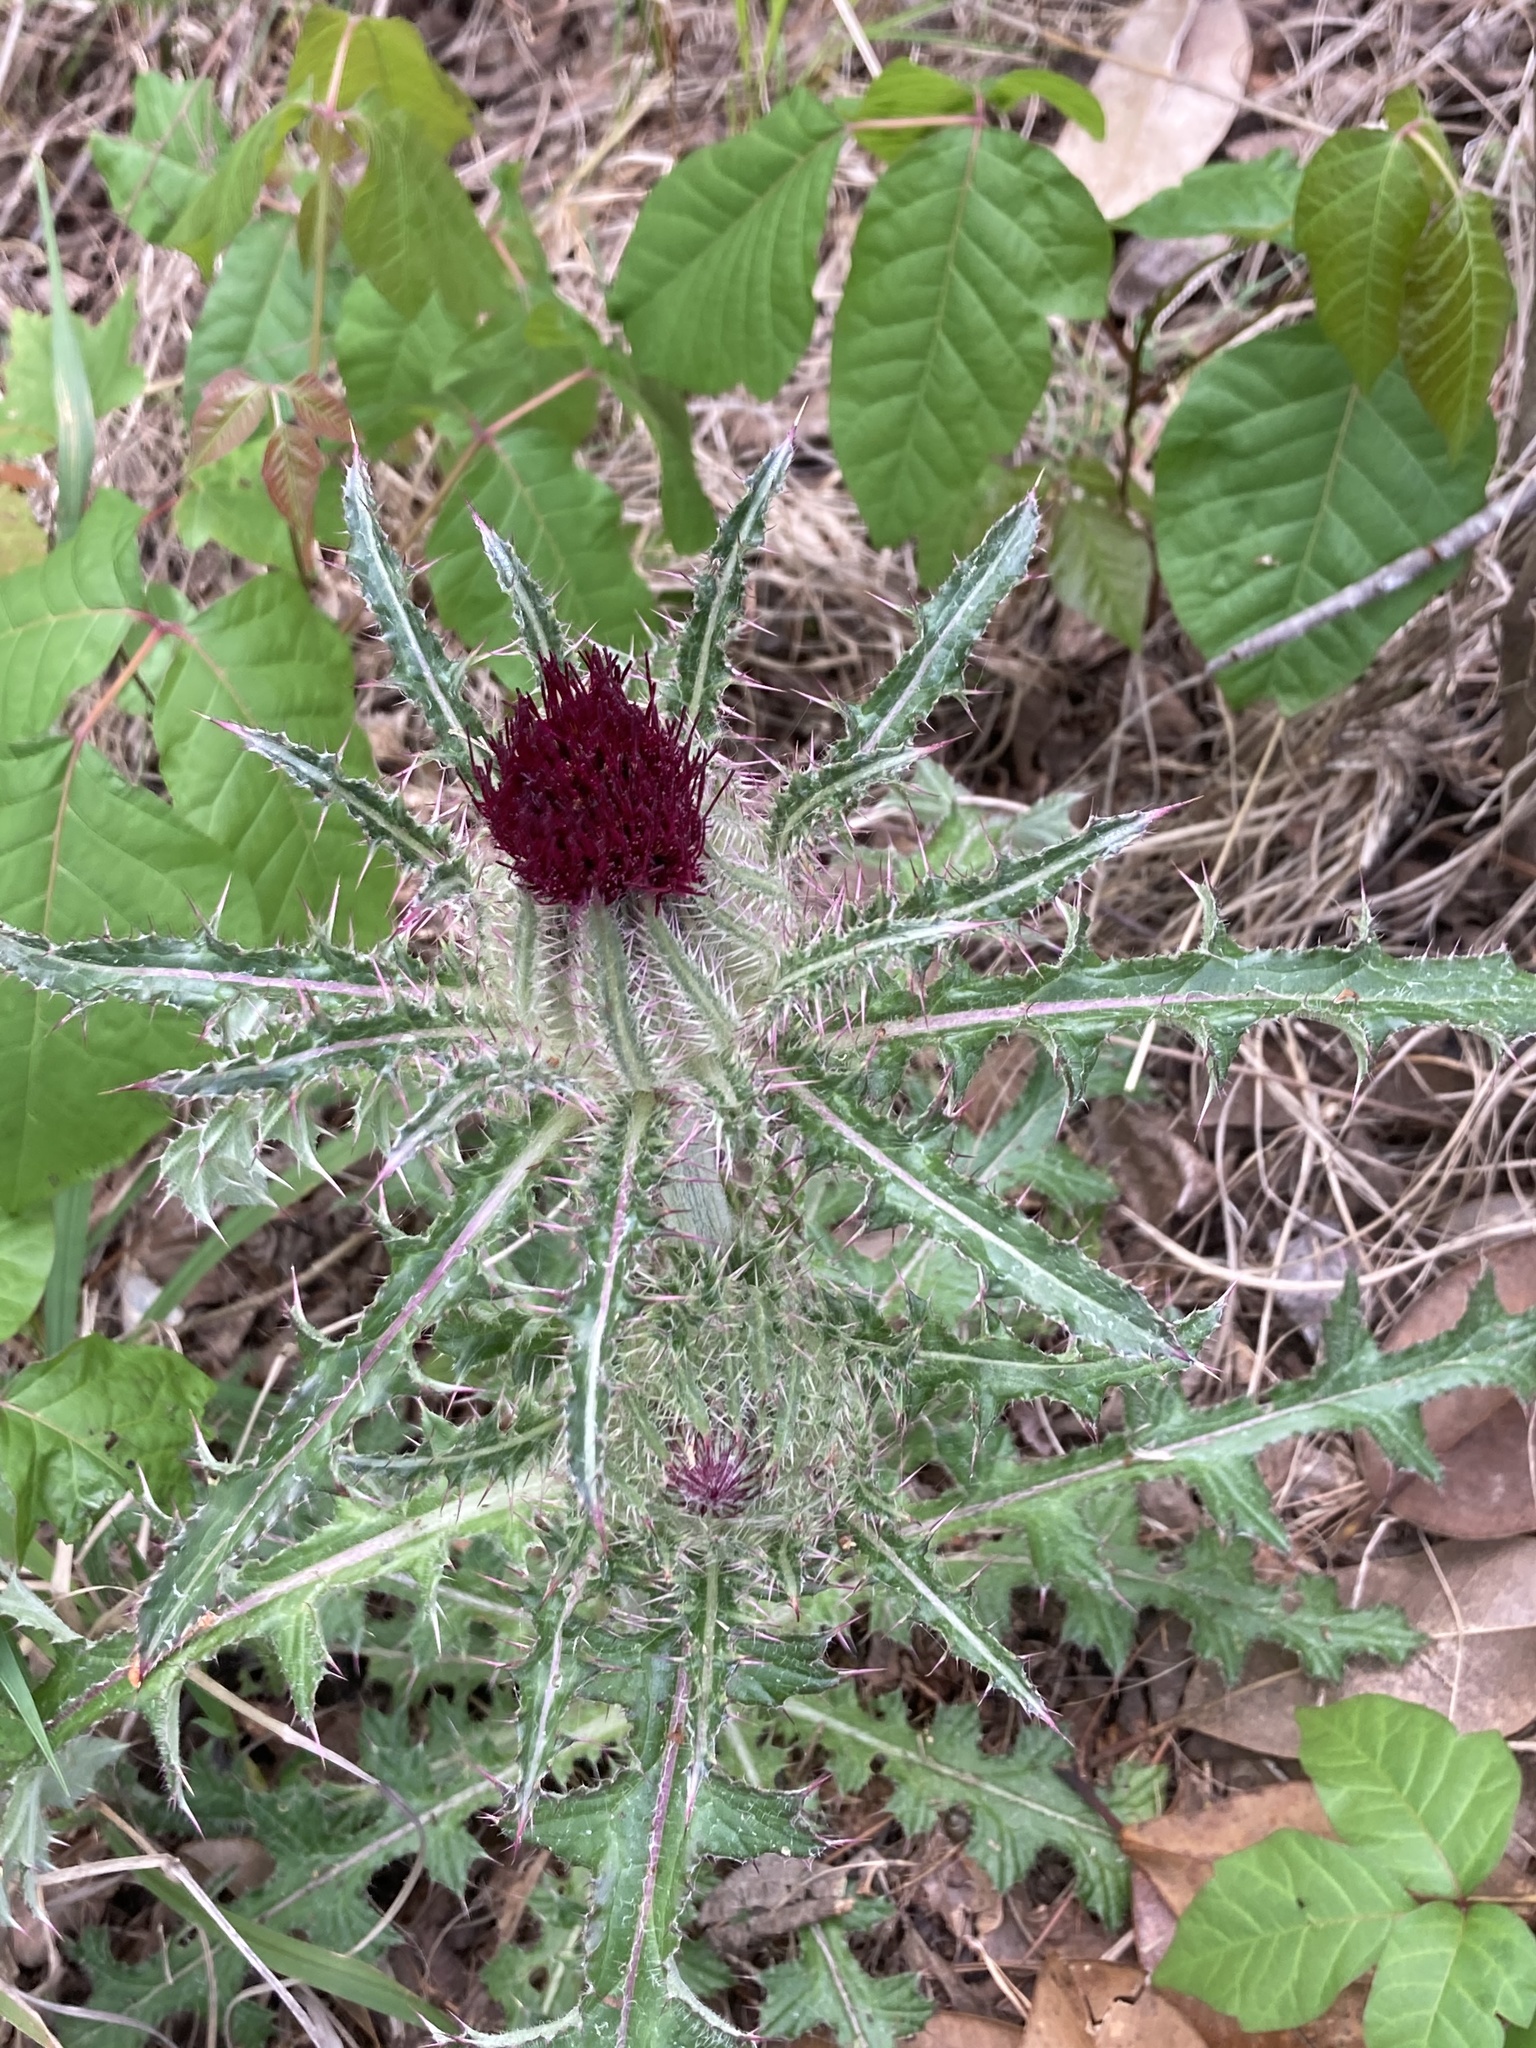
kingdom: Plantae
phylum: Tracheophyta
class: Magnoliopsida
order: Asterales
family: Asteraceae
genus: Cirsium
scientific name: Cirsium horridulum
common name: Bristly thistle
